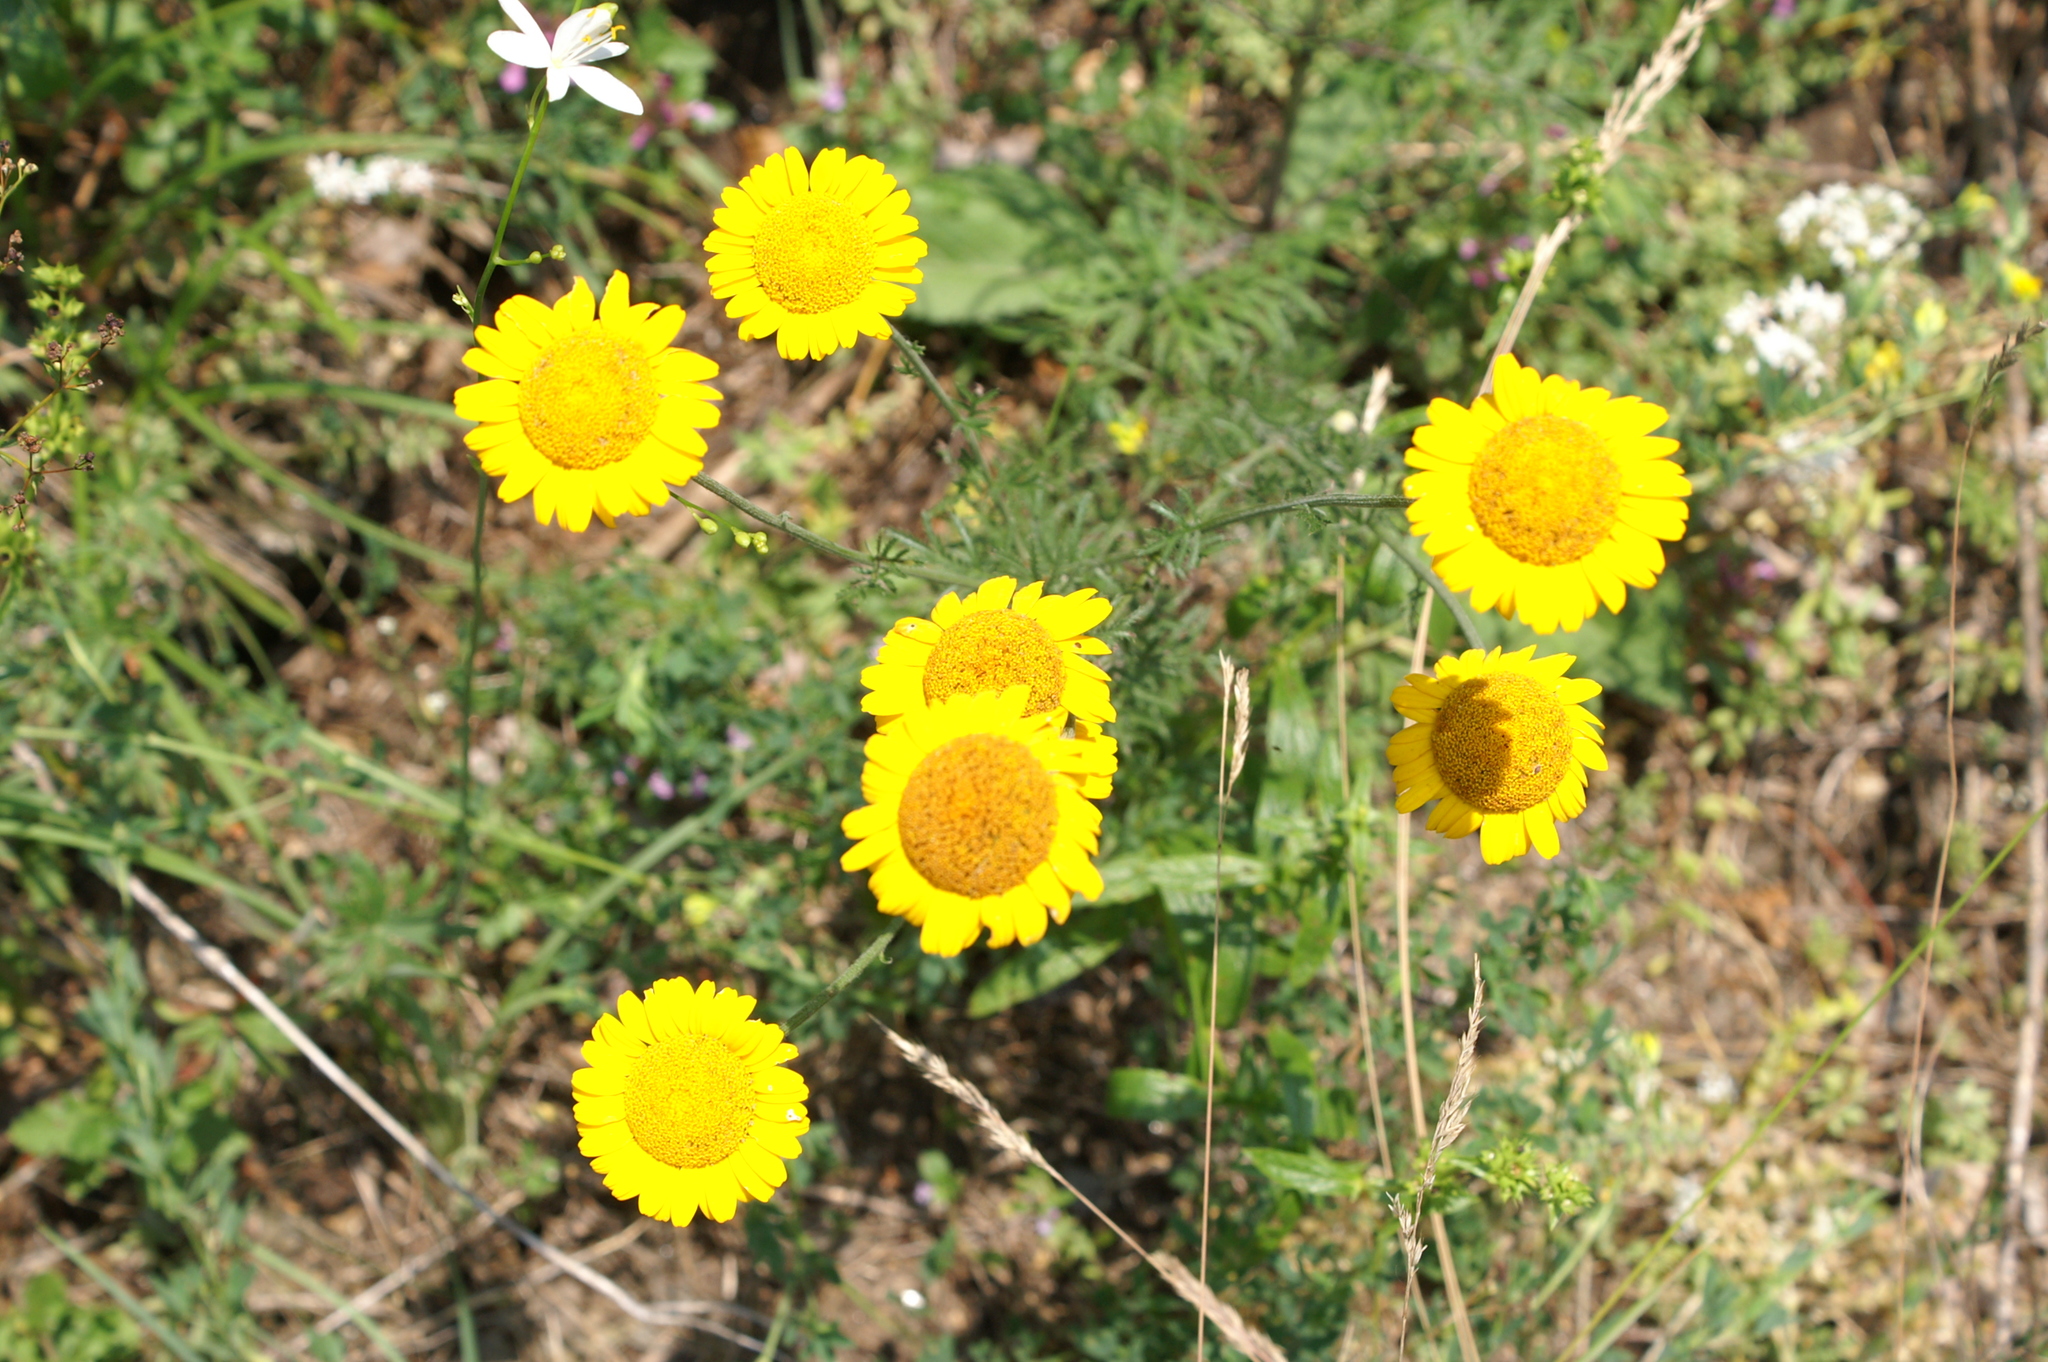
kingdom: Plantae
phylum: Tracheophyta
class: Magnoliopsida
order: Asterales
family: Asteraceae
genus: Cota
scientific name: Cota tinctoria
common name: Golden chamomile
